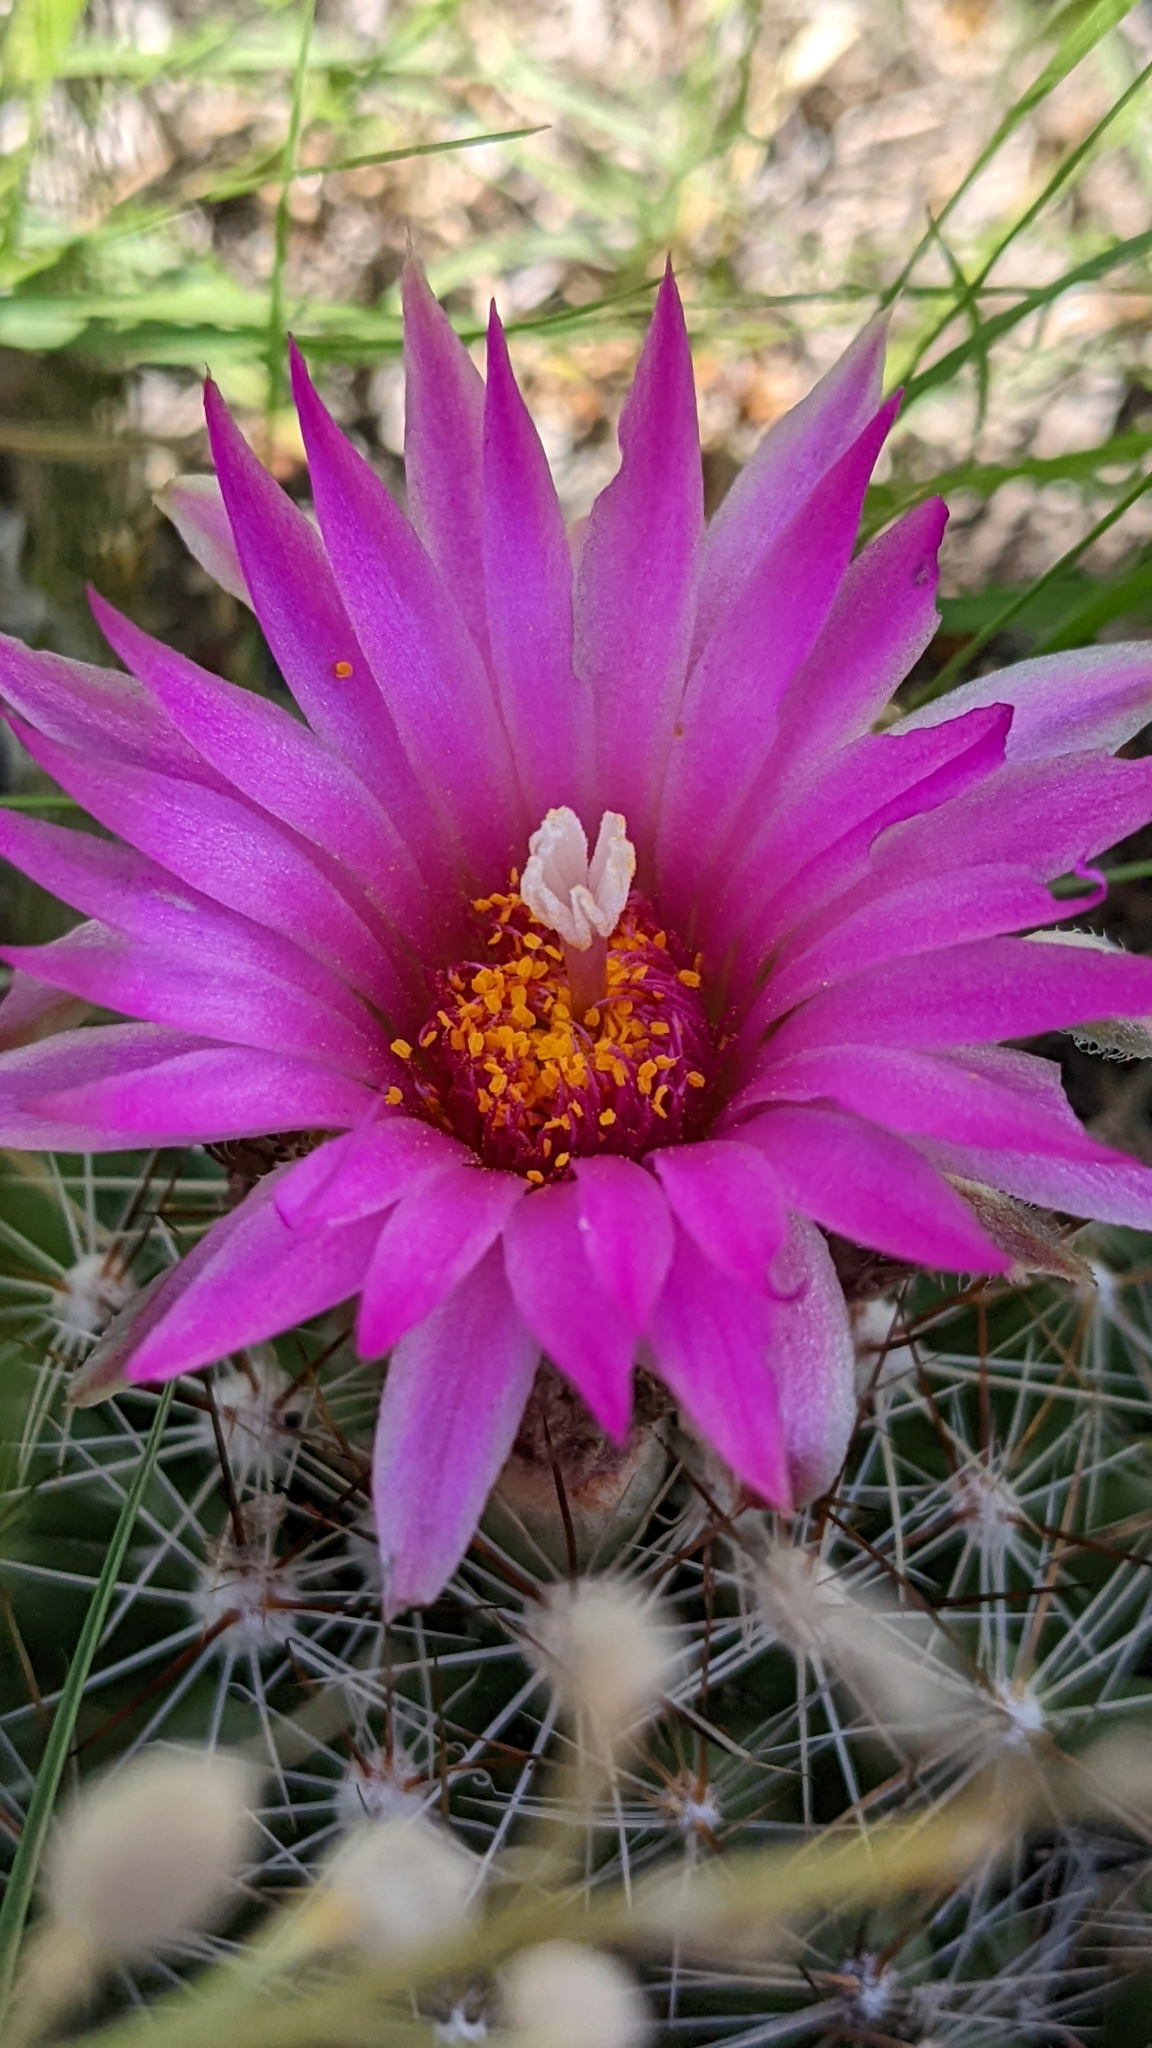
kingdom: Plantae
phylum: Tracheophyta
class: Magnoliopsida
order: Caryophyllales
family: Cactaceae
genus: Pelecyphora
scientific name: Pelecyphora vivipara
